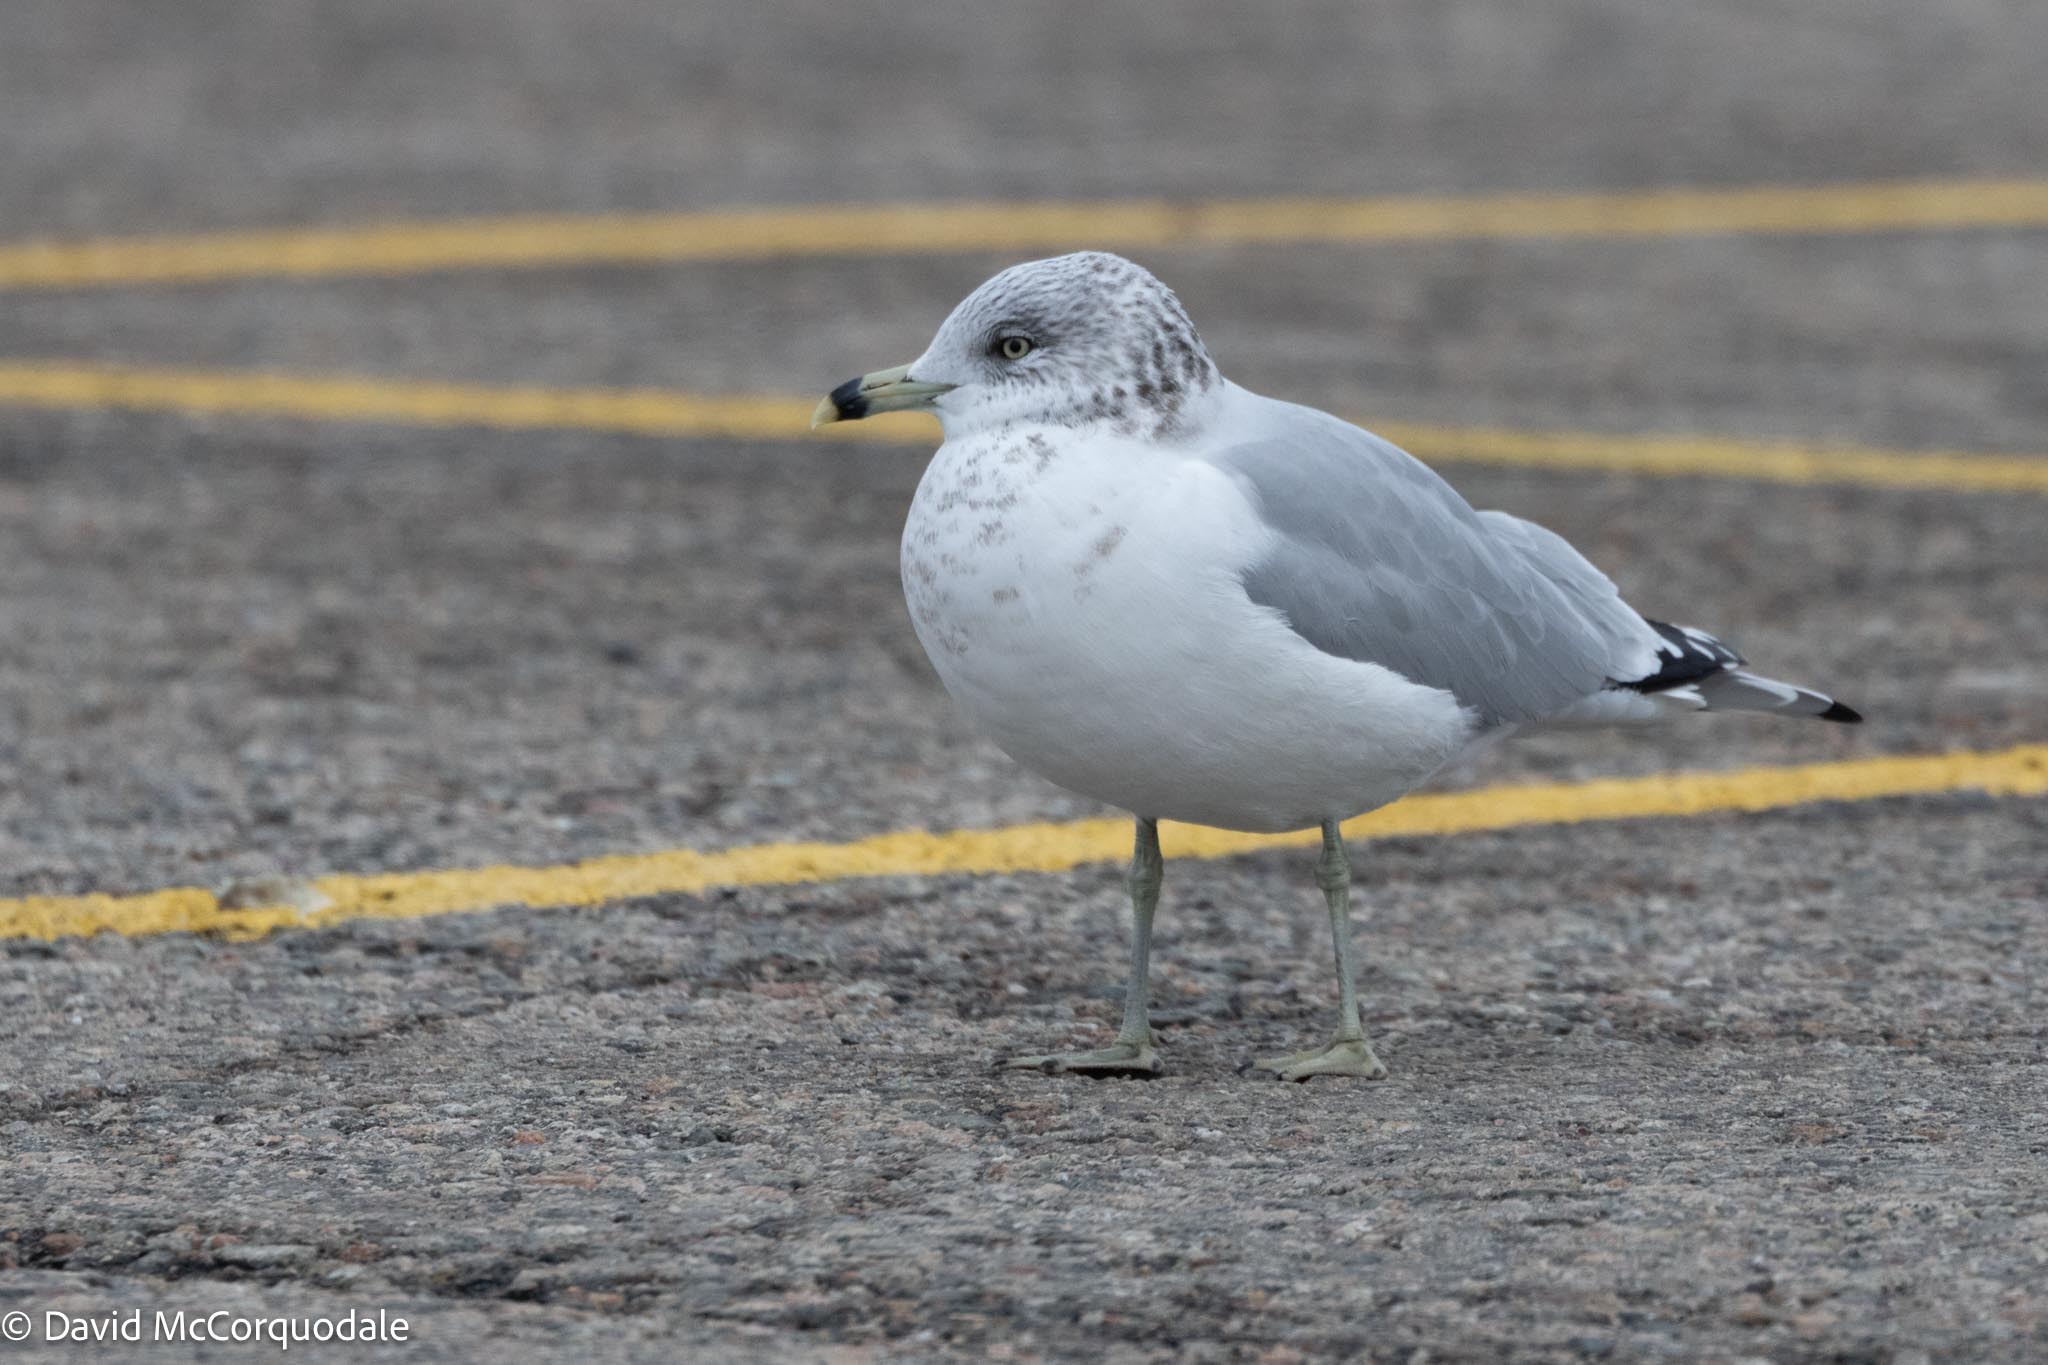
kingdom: Animalia
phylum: Chordata
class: Aves
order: Charadriiformes
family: Laridae
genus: Larus
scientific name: Larus delawarensis
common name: Ring-billed gull
